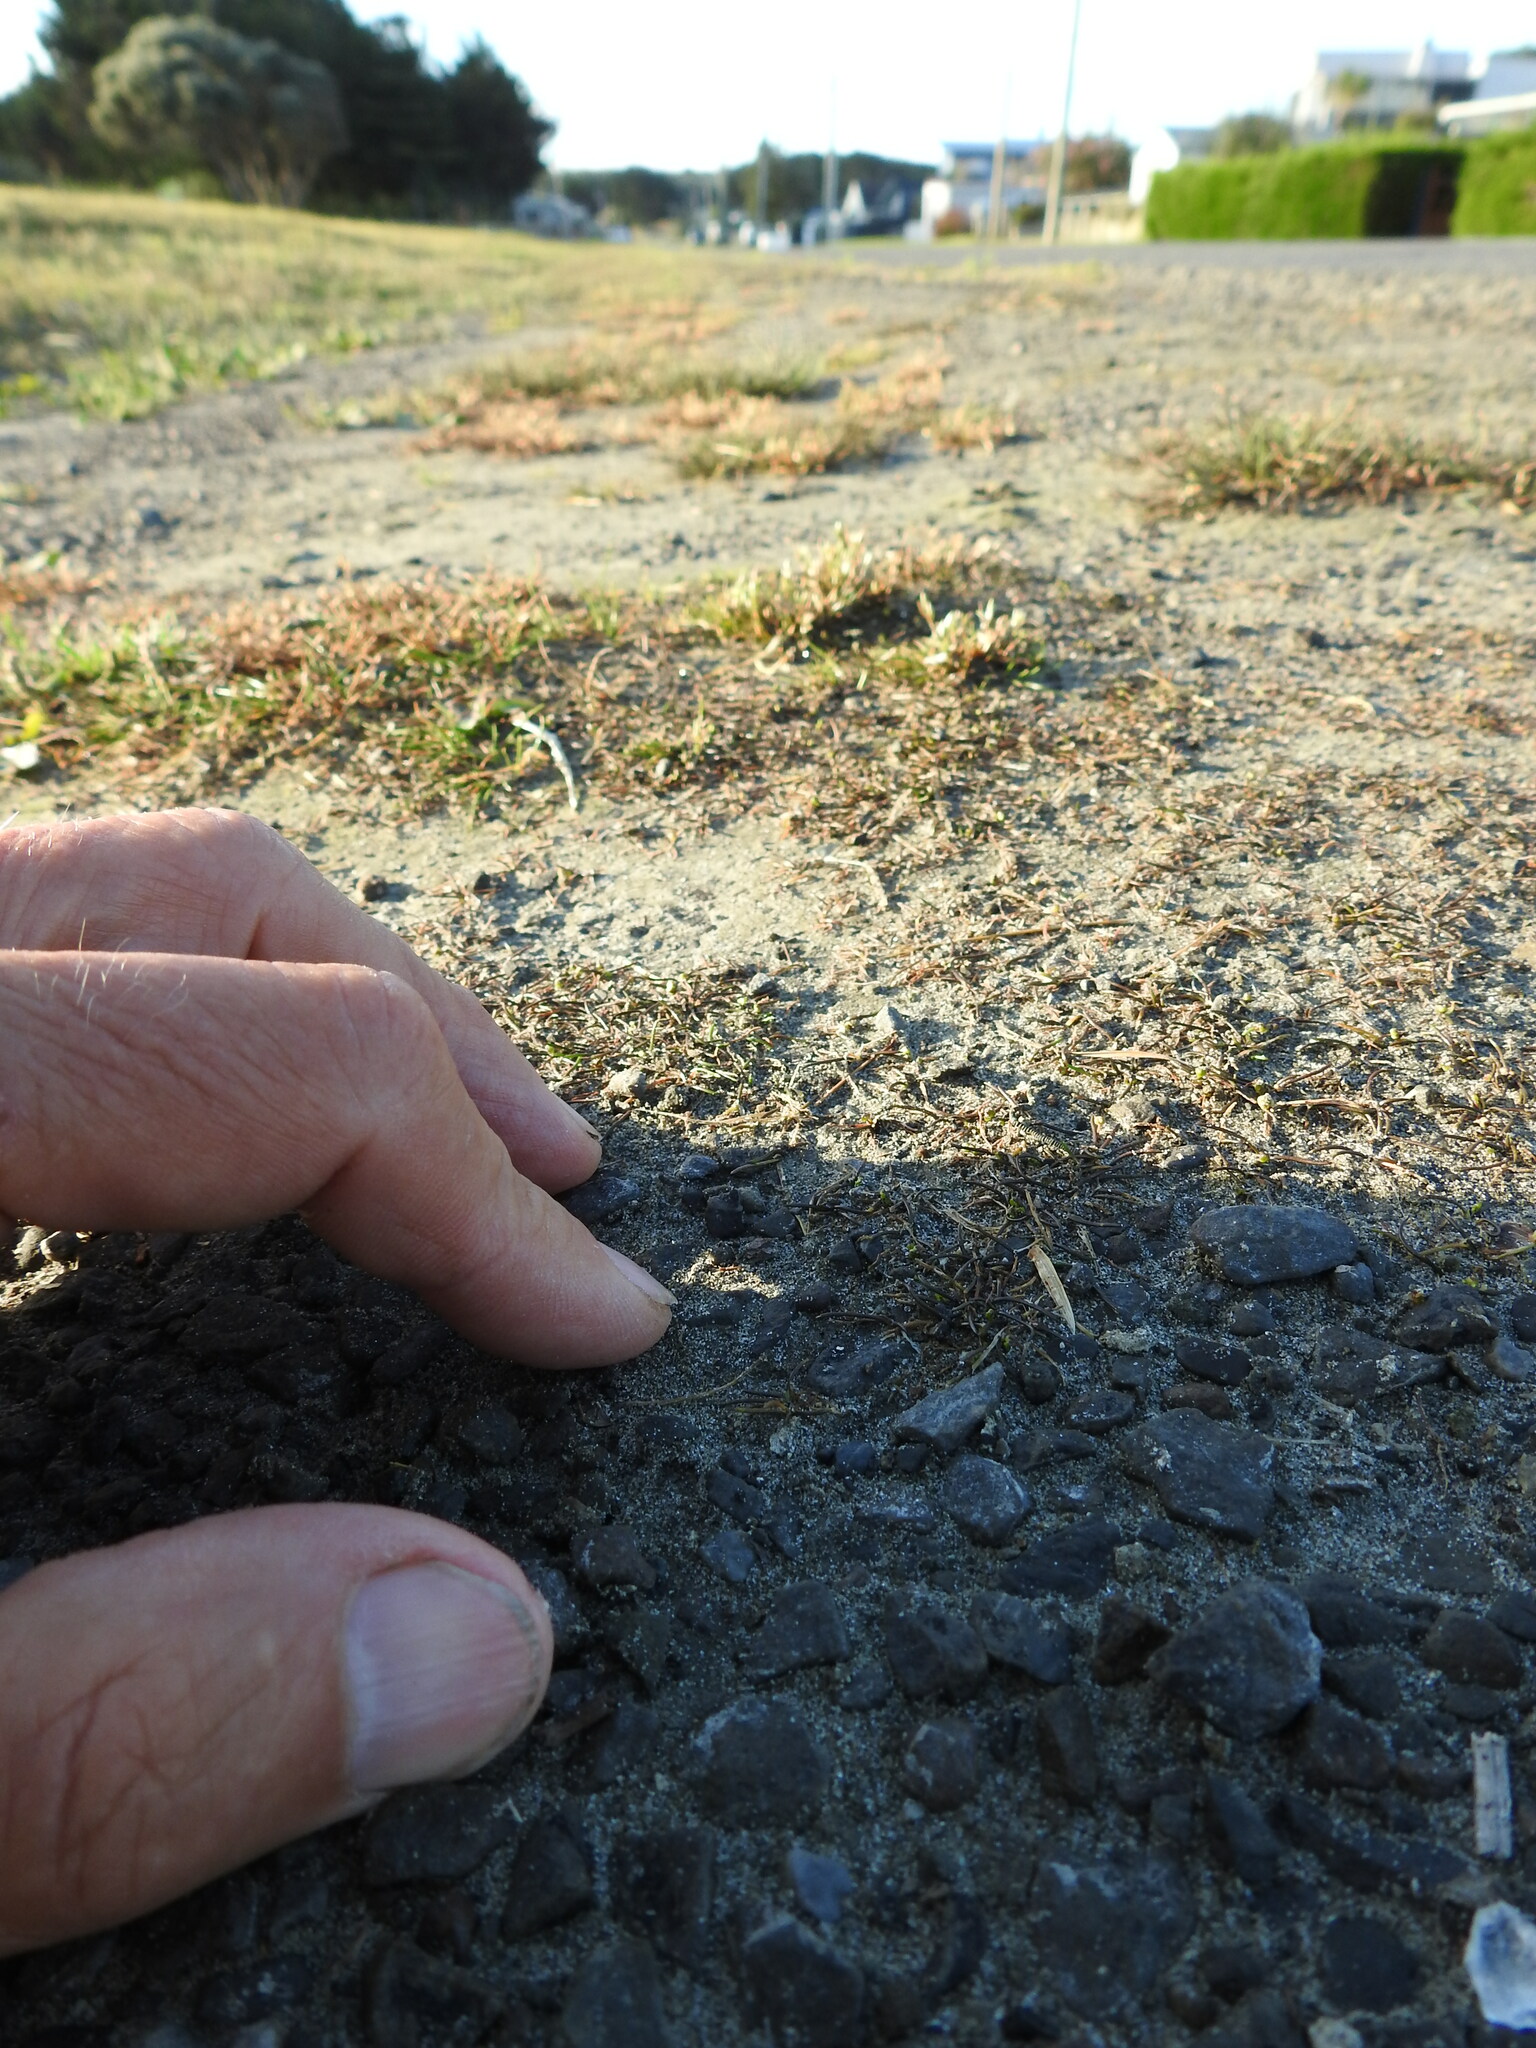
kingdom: Plantae
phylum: Tracheophyta
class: Liliopsida
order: Alismatales
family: Juncaginaceae
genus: Triglochin
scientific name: Triglochin striata
